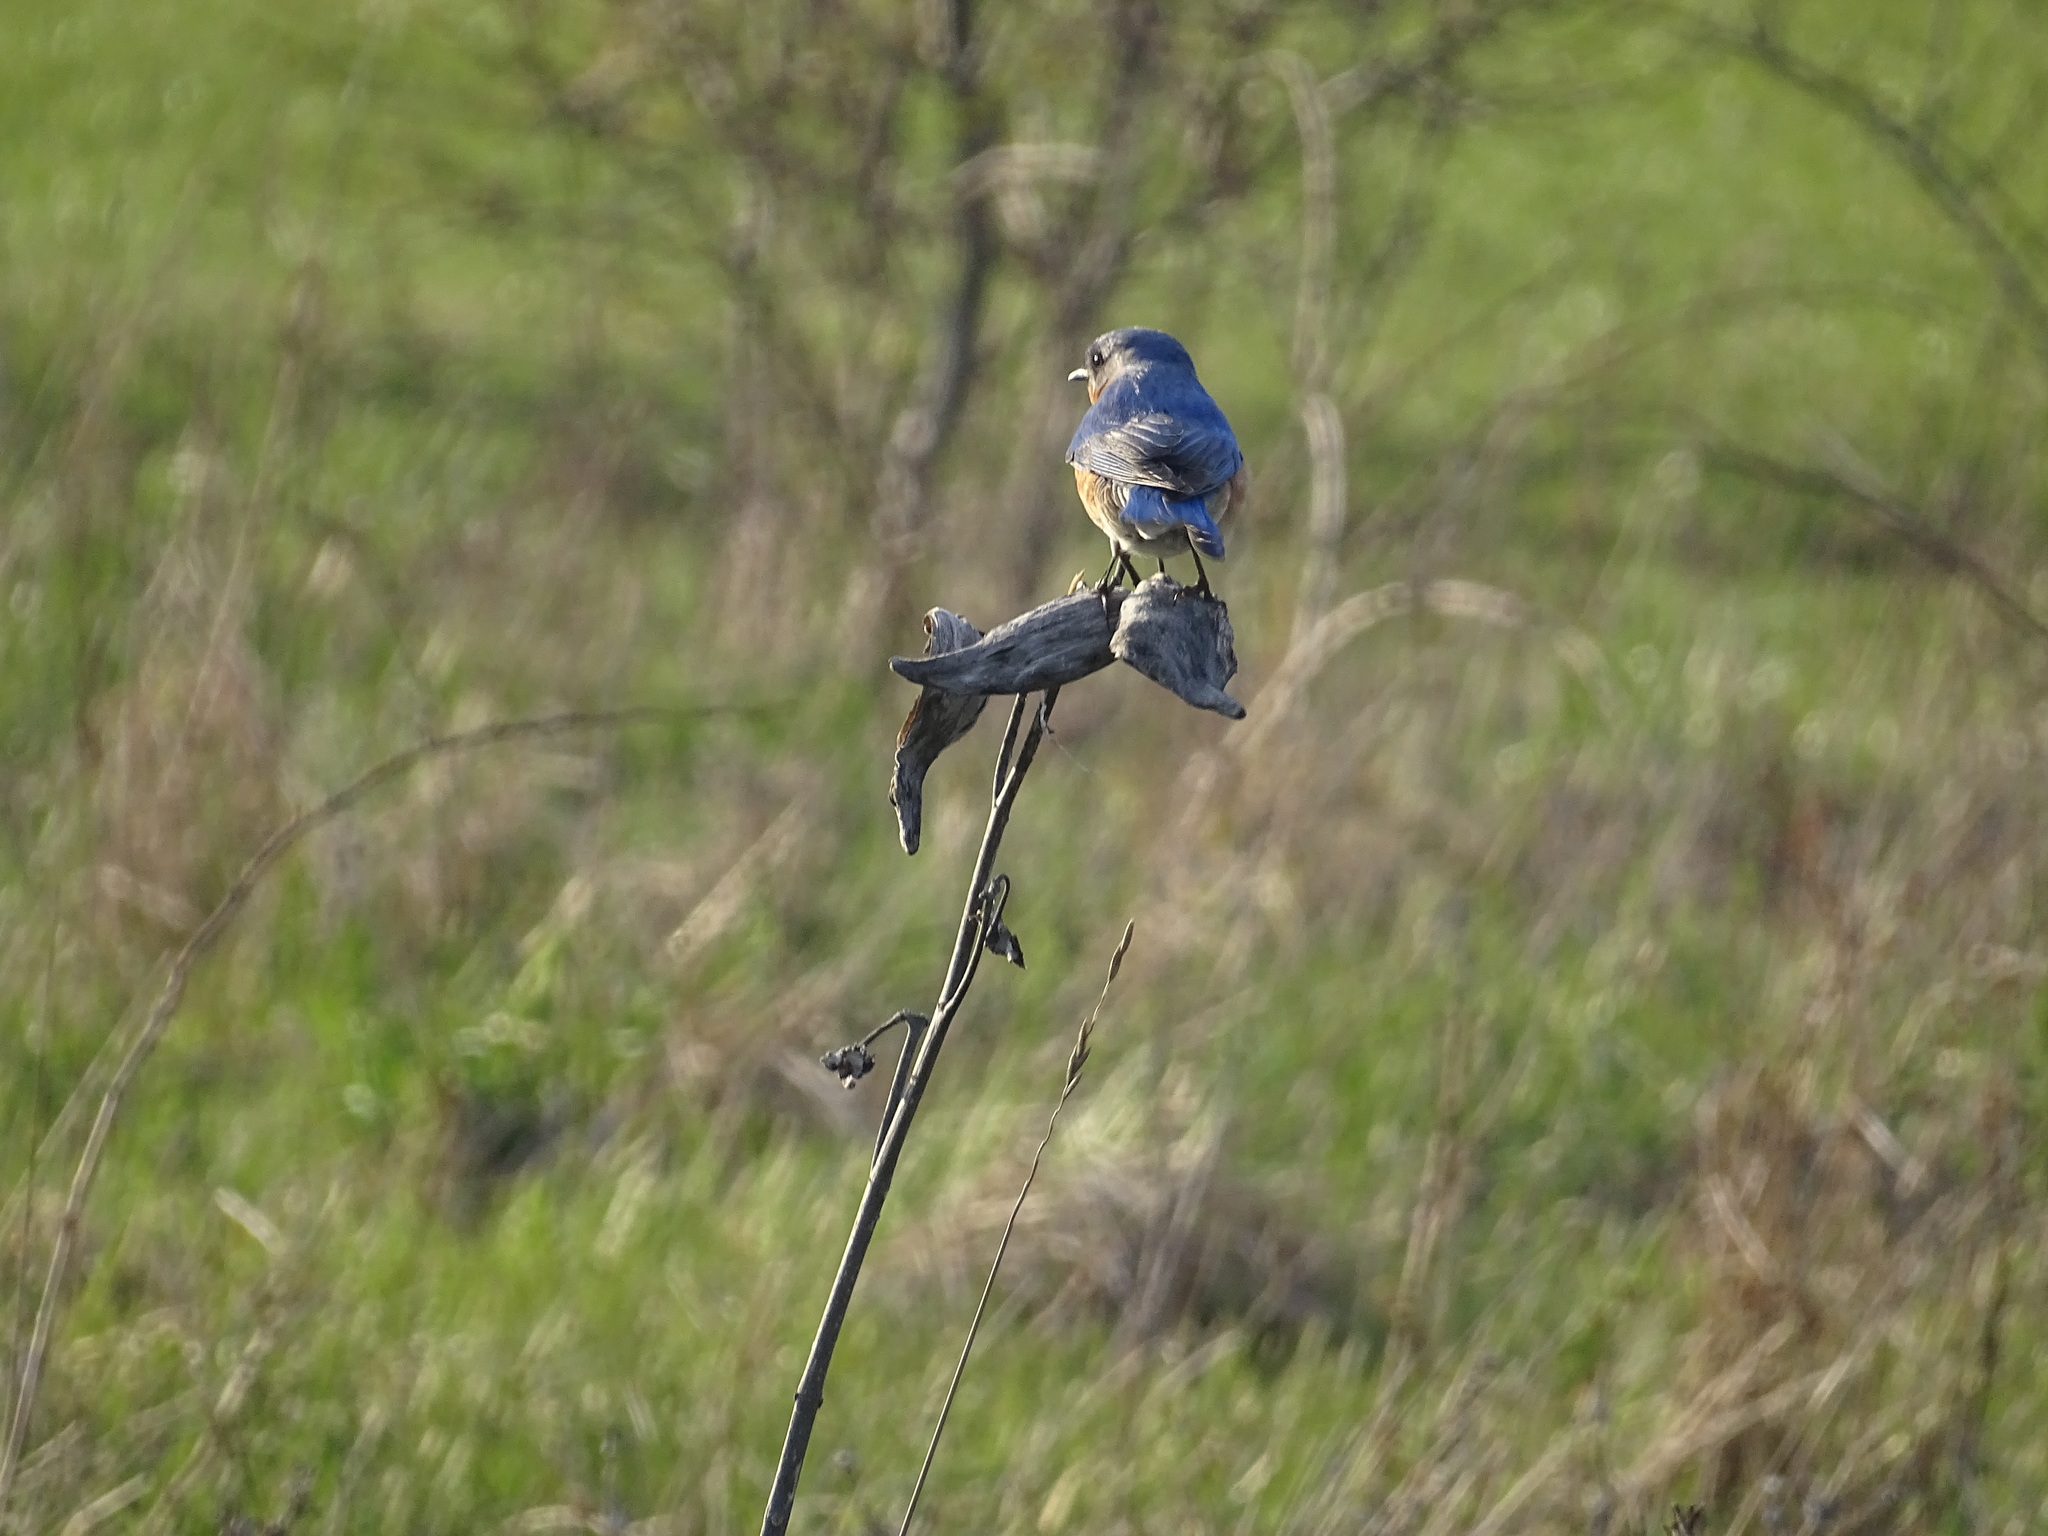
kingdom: Animalia
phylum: Chordata
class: Aves
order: Passeriformes
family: Turdidae
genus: Sialia
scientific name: Sialia sialis
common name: Eastern bluebird
